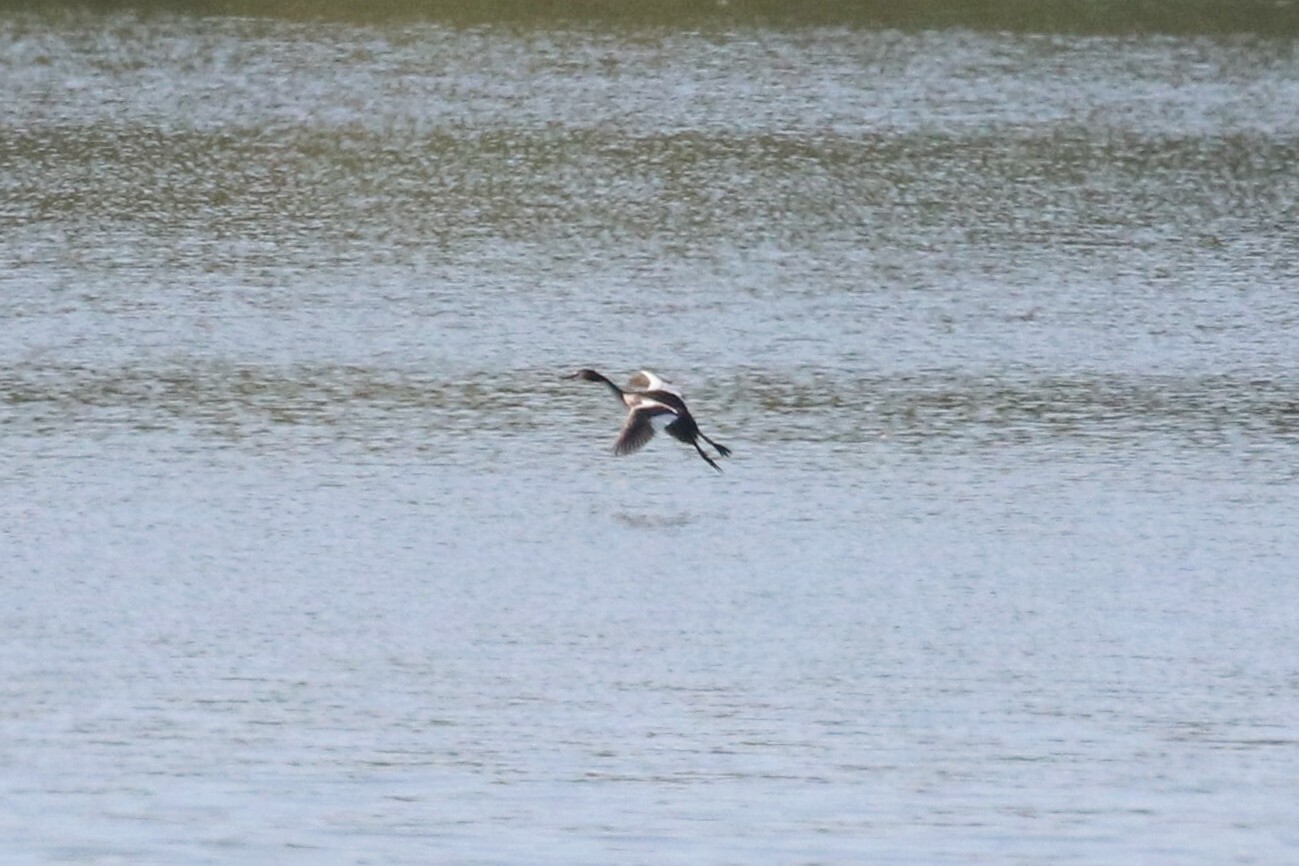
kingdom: Animalia
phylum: Chordata
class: Aves
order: Podicipediformes
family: Podicipedidae
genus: Podiceps
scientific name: Podiceps cristatus
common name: Great crested grebe
